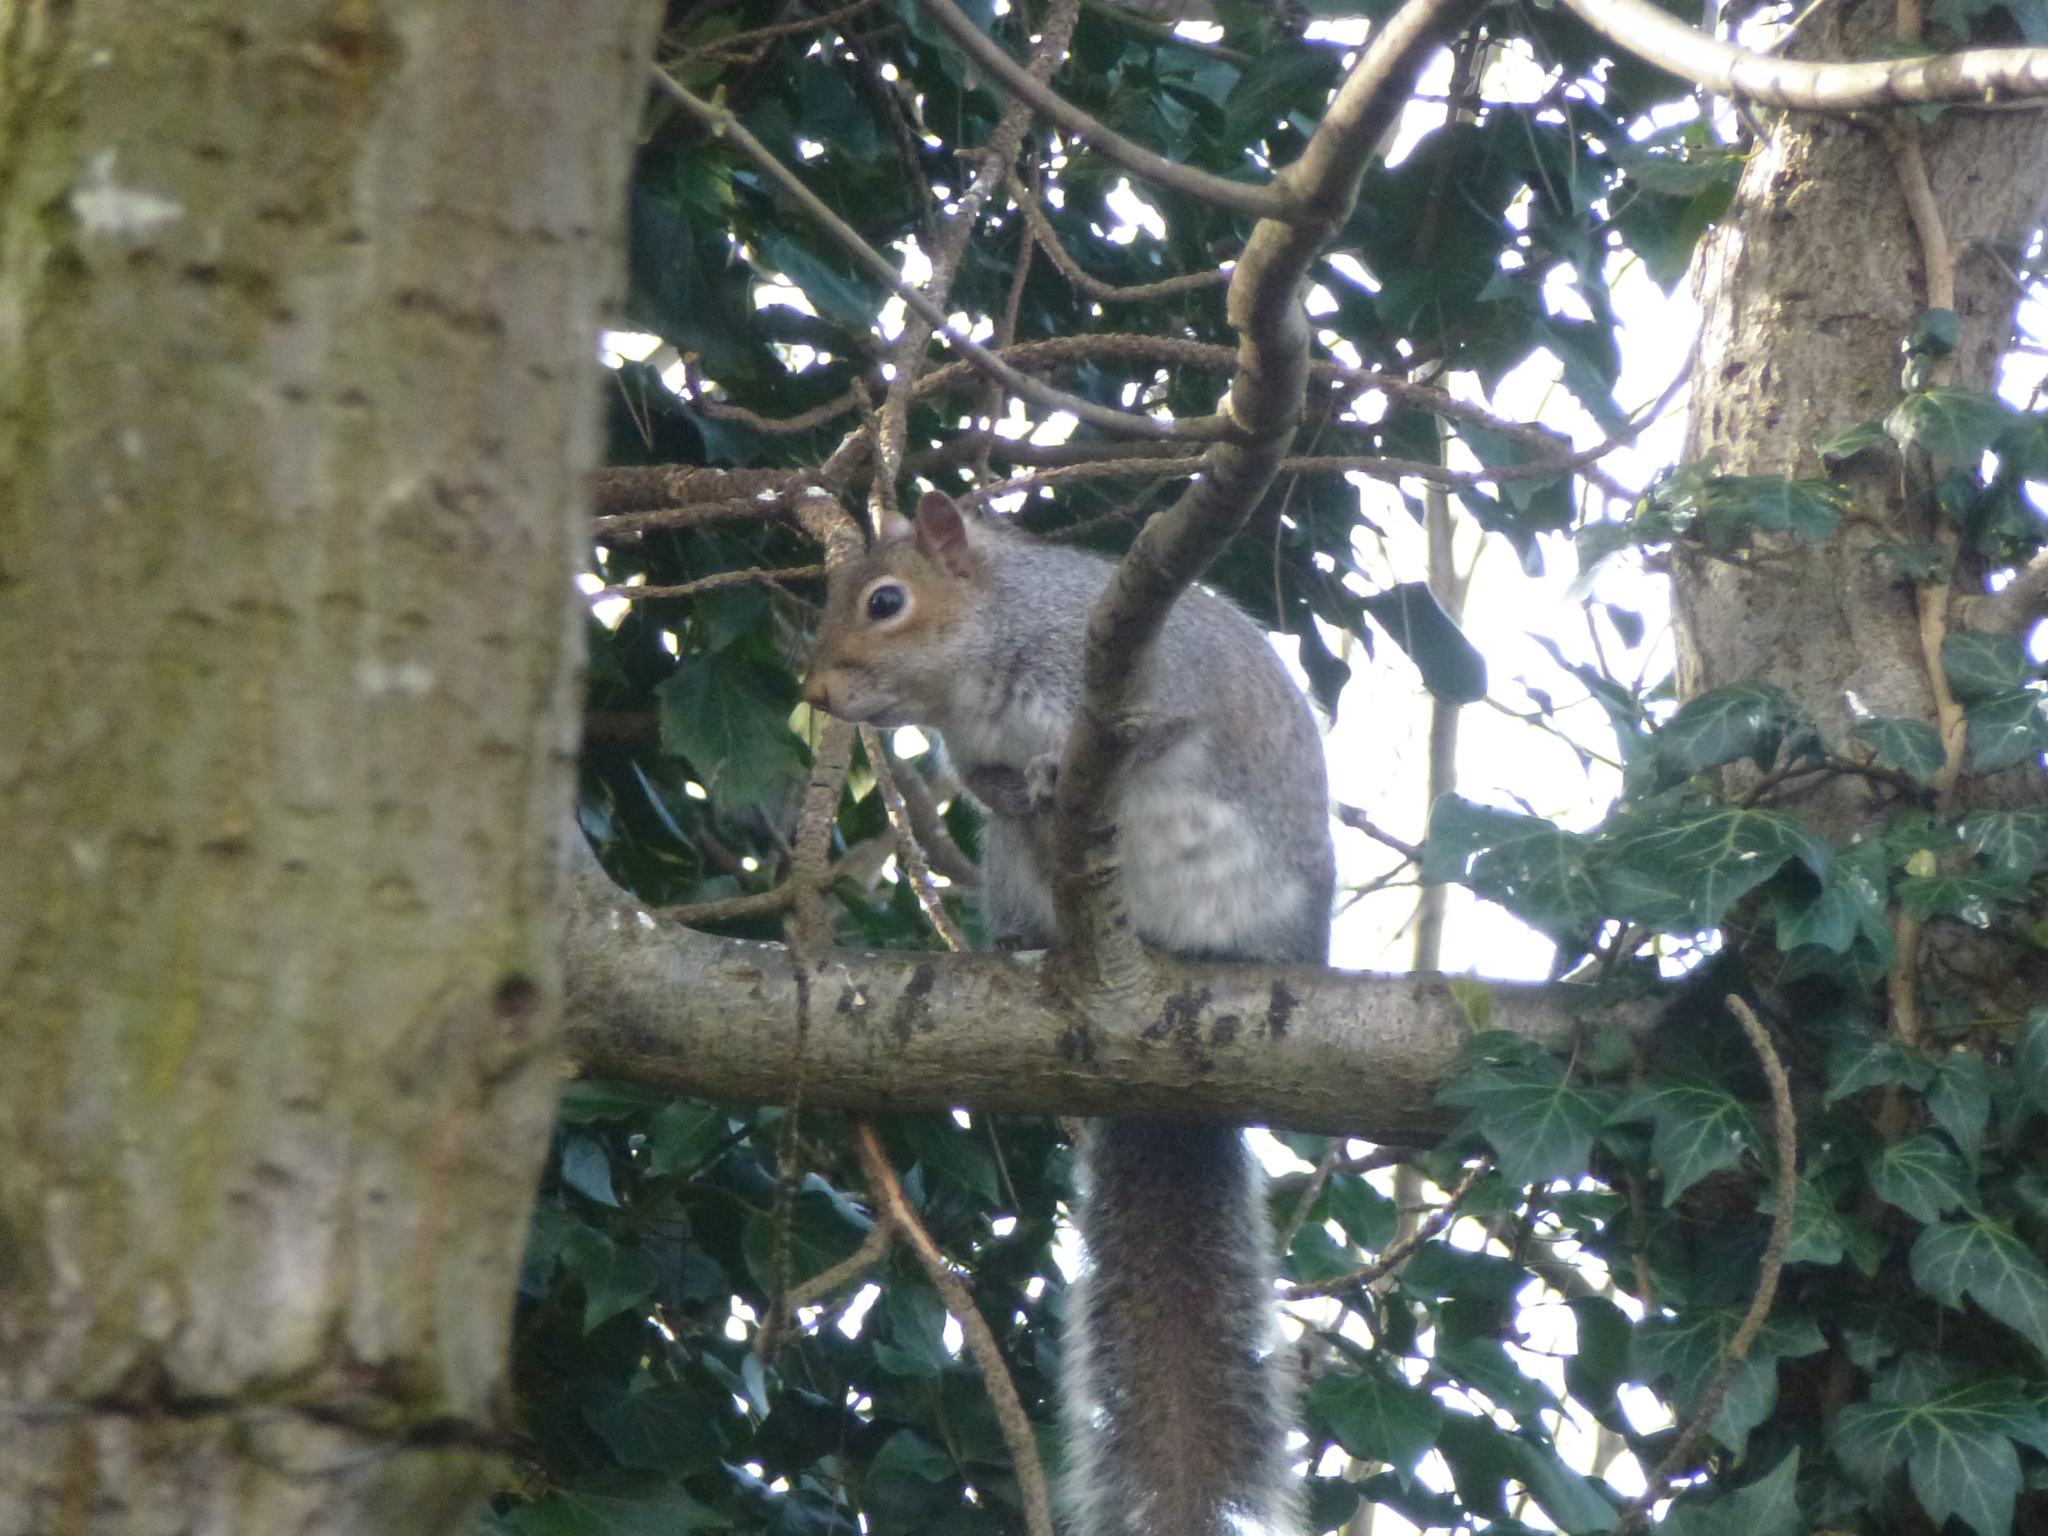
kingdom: Animalia
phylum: Chordata
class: Mammalia
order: Rodentia
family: Sciuridae
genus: Sciurus
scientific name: Sciurus carolinensis
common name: Eastern gray squirrel
